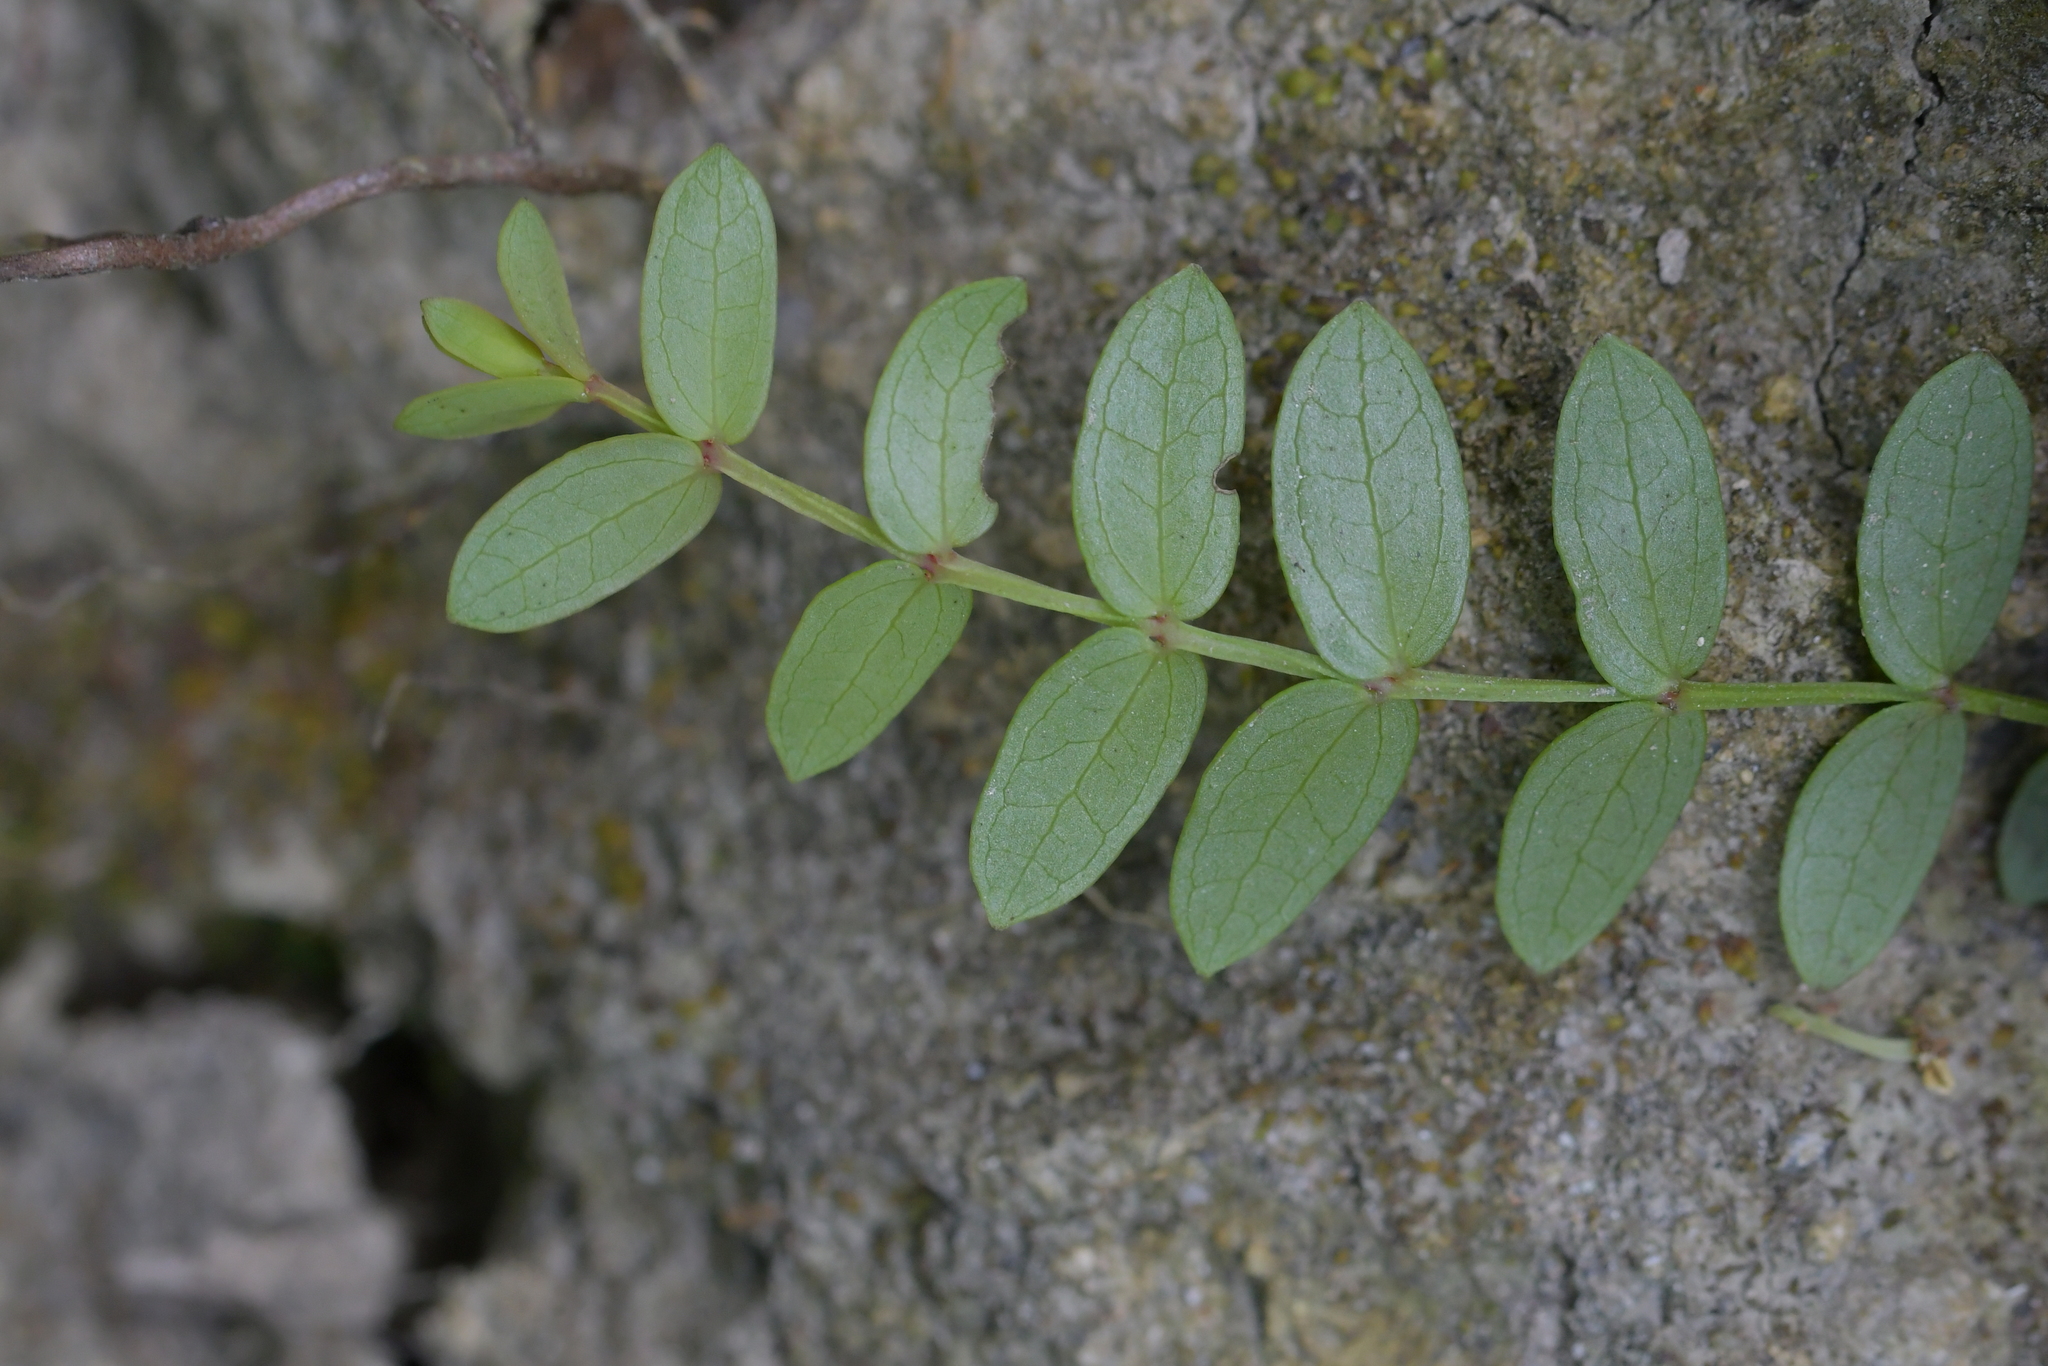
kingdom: Plantae
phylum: Tracheophyta
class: Magnoliopsida
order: Myrtales
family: Myrtaceae
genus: Metrosideros
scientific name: Metrosideros diffusa
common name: Small ratavine
